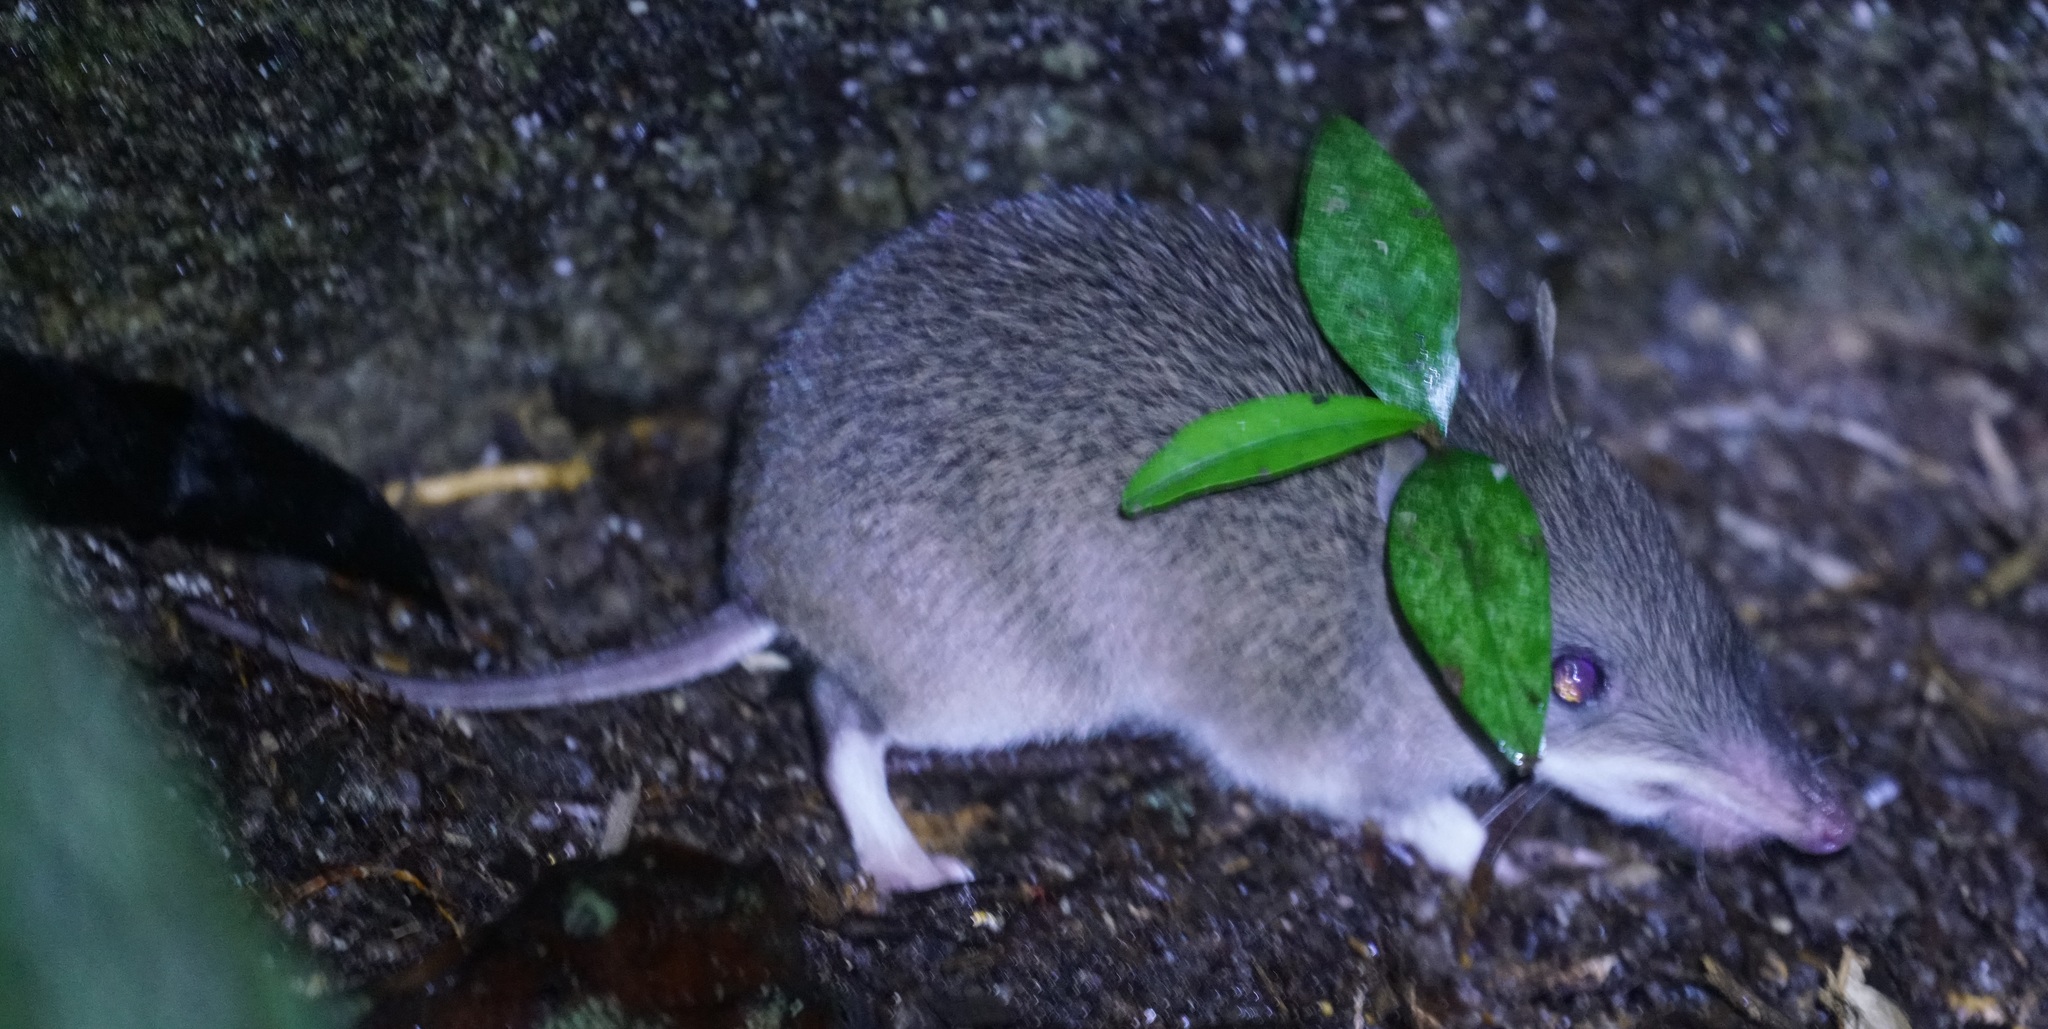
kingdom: Animalia
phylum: Chordata
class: Mammalia
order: Peramelemorphia
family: Peramelidae
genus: Perameles
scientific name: Perameles pallescens
